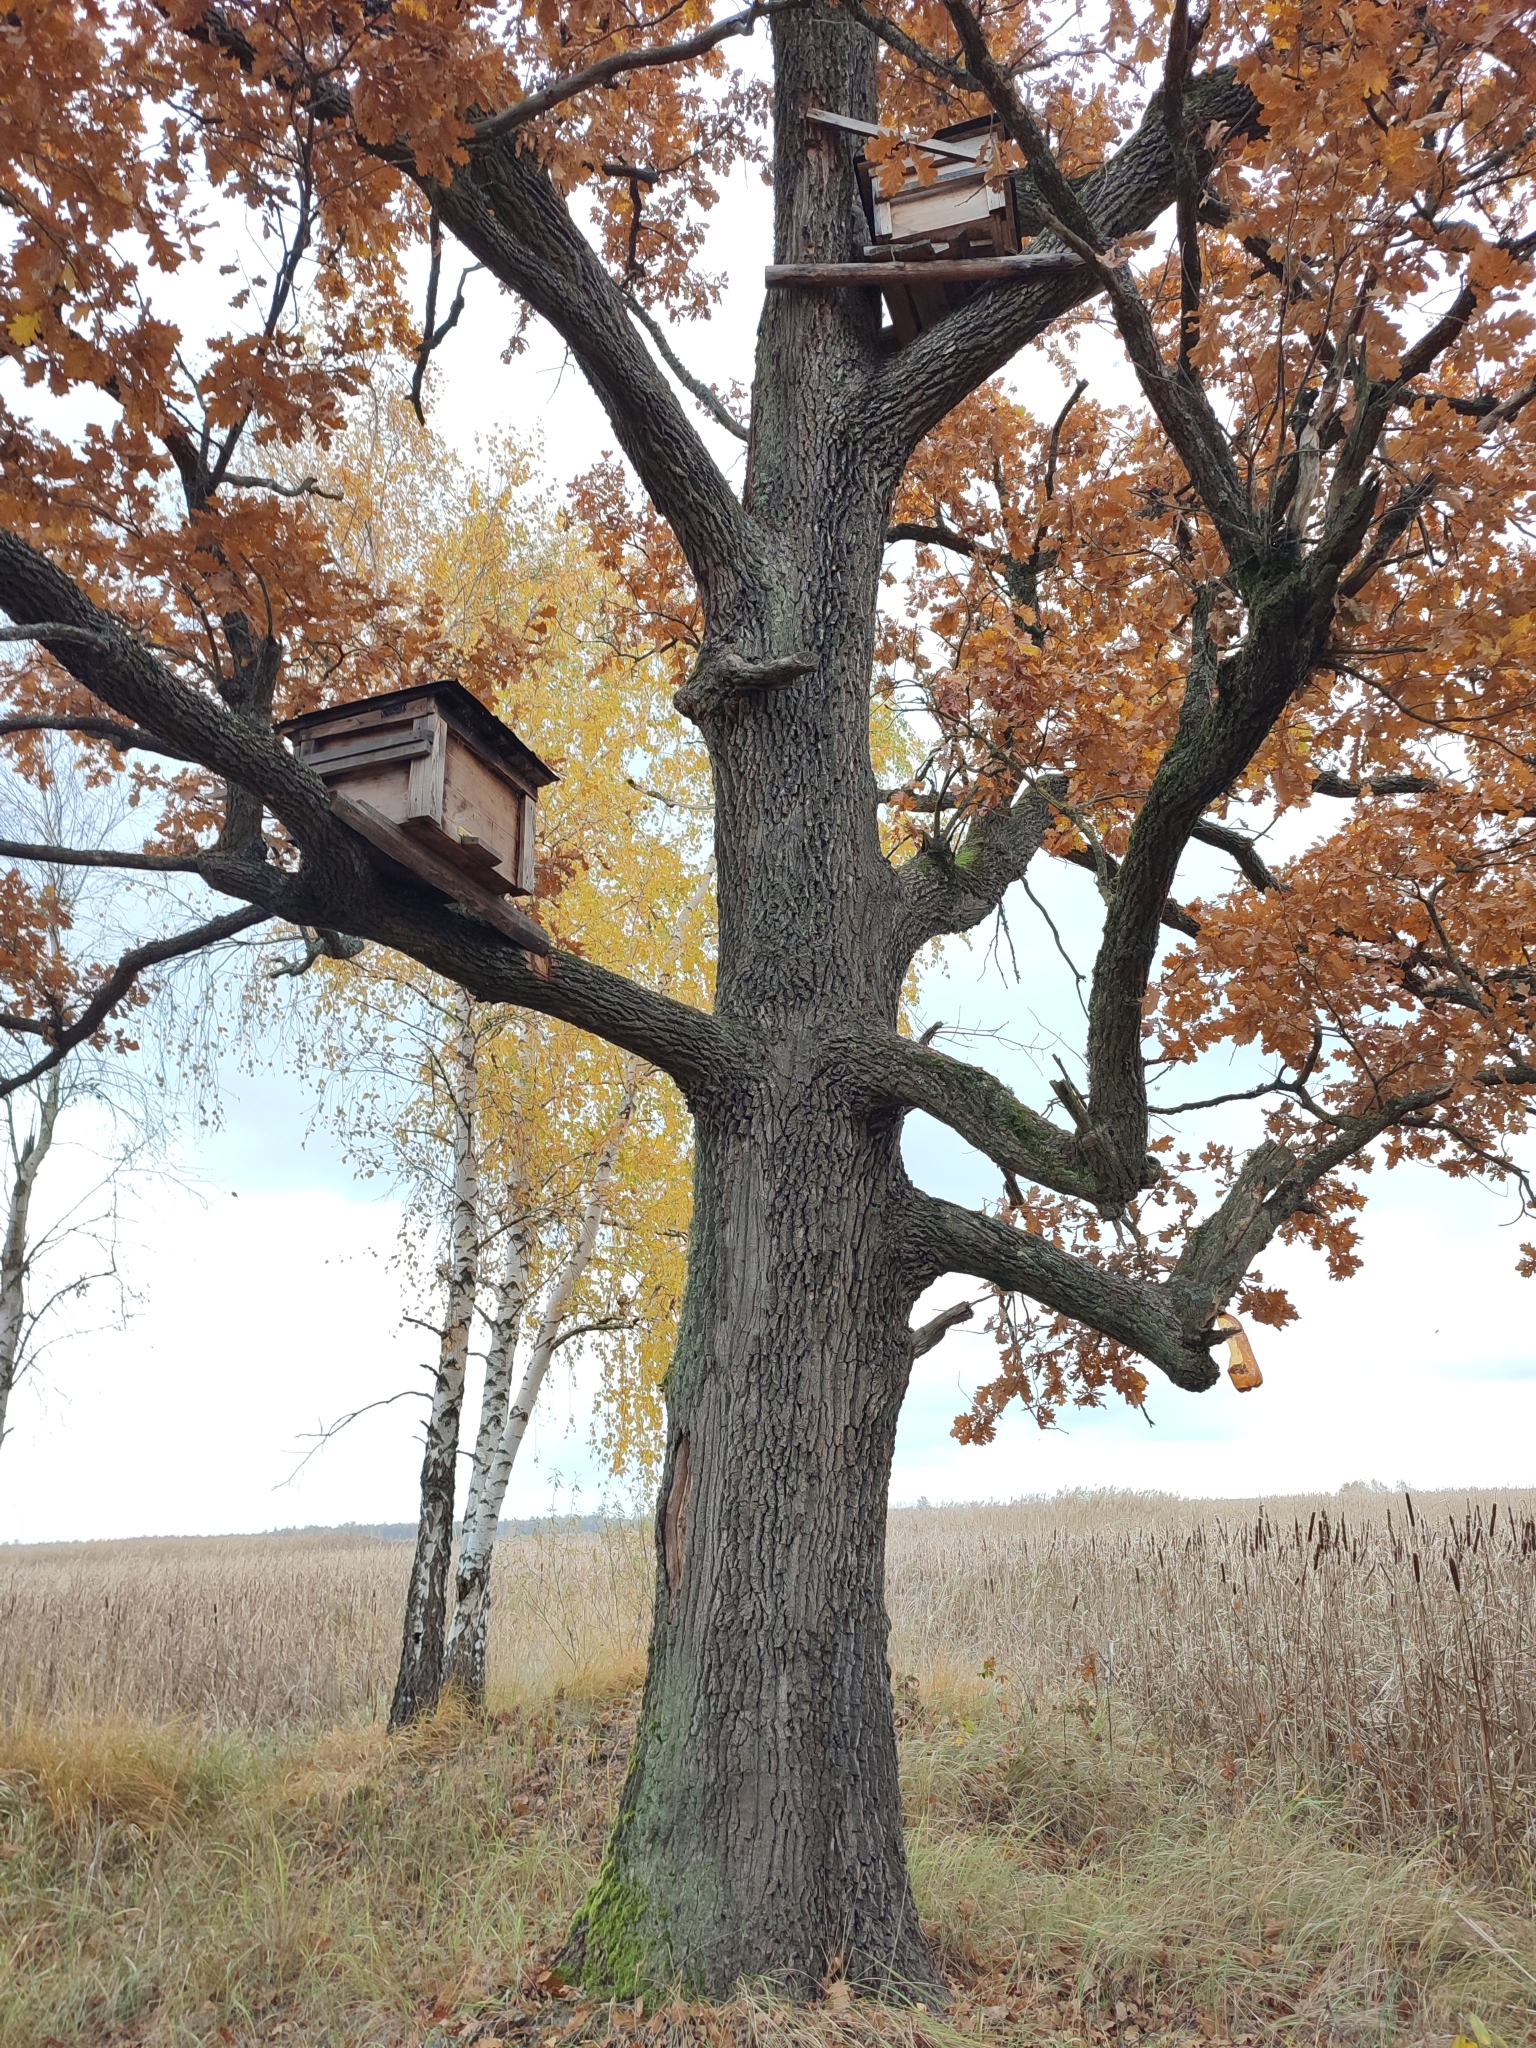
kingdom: Plantae
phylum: Tracheophyta
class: Magnoliopsida
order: Fagales
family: Fagaceae
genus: Quercus
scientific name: Quercus robur
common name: Pedunculate oak
